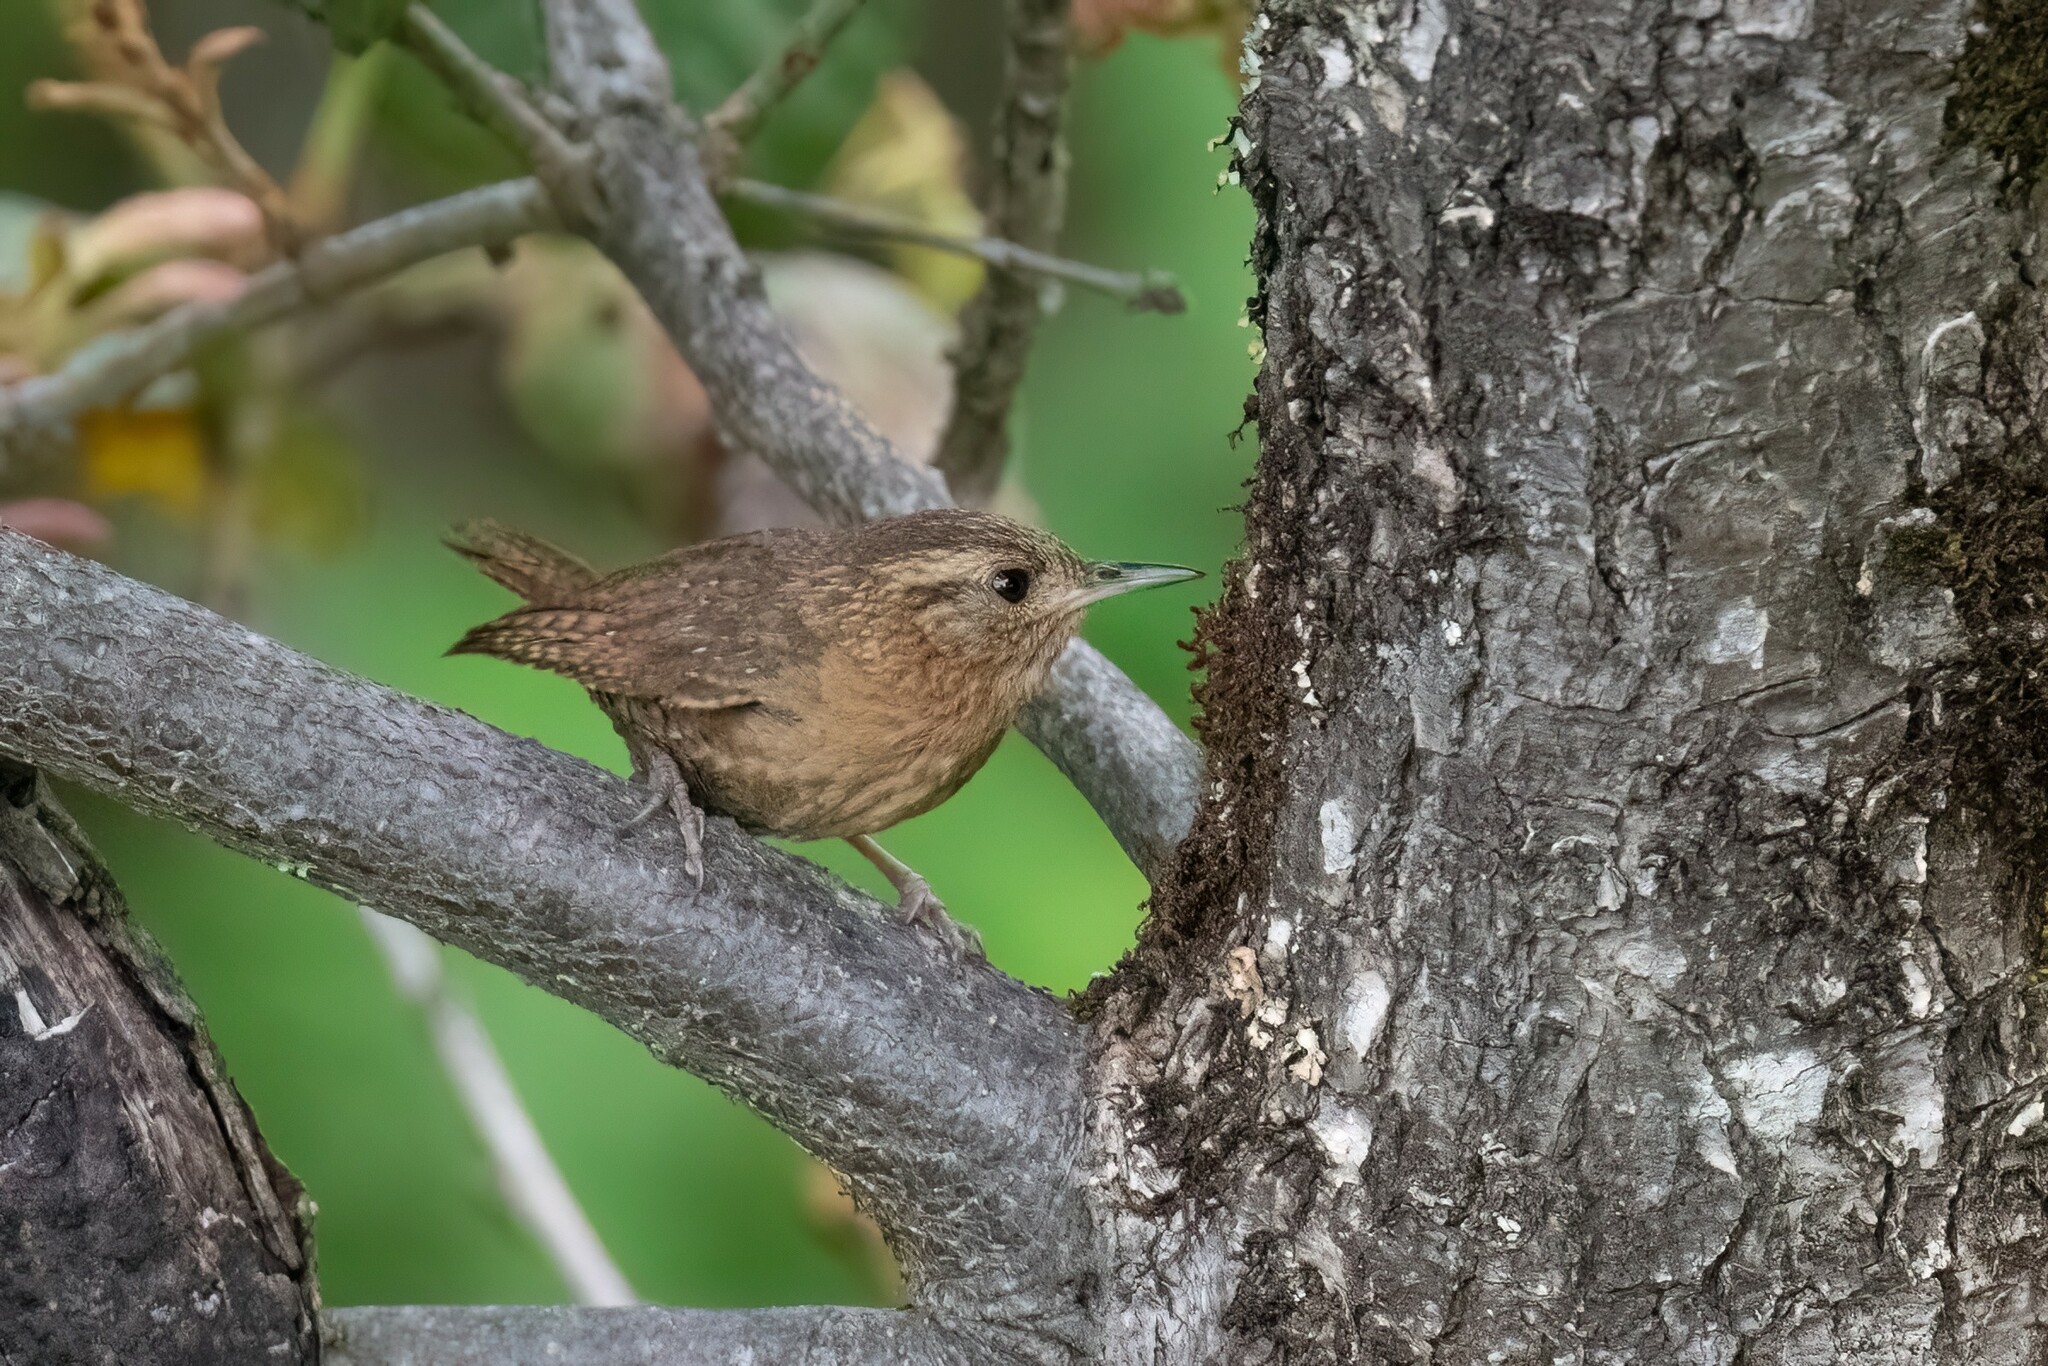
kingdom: Animalia
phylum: Chordata
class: Aves
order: Passeriformes
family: Troglodytidae
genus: Troglodytes
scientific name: Troglodytes aedon
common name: House wren
